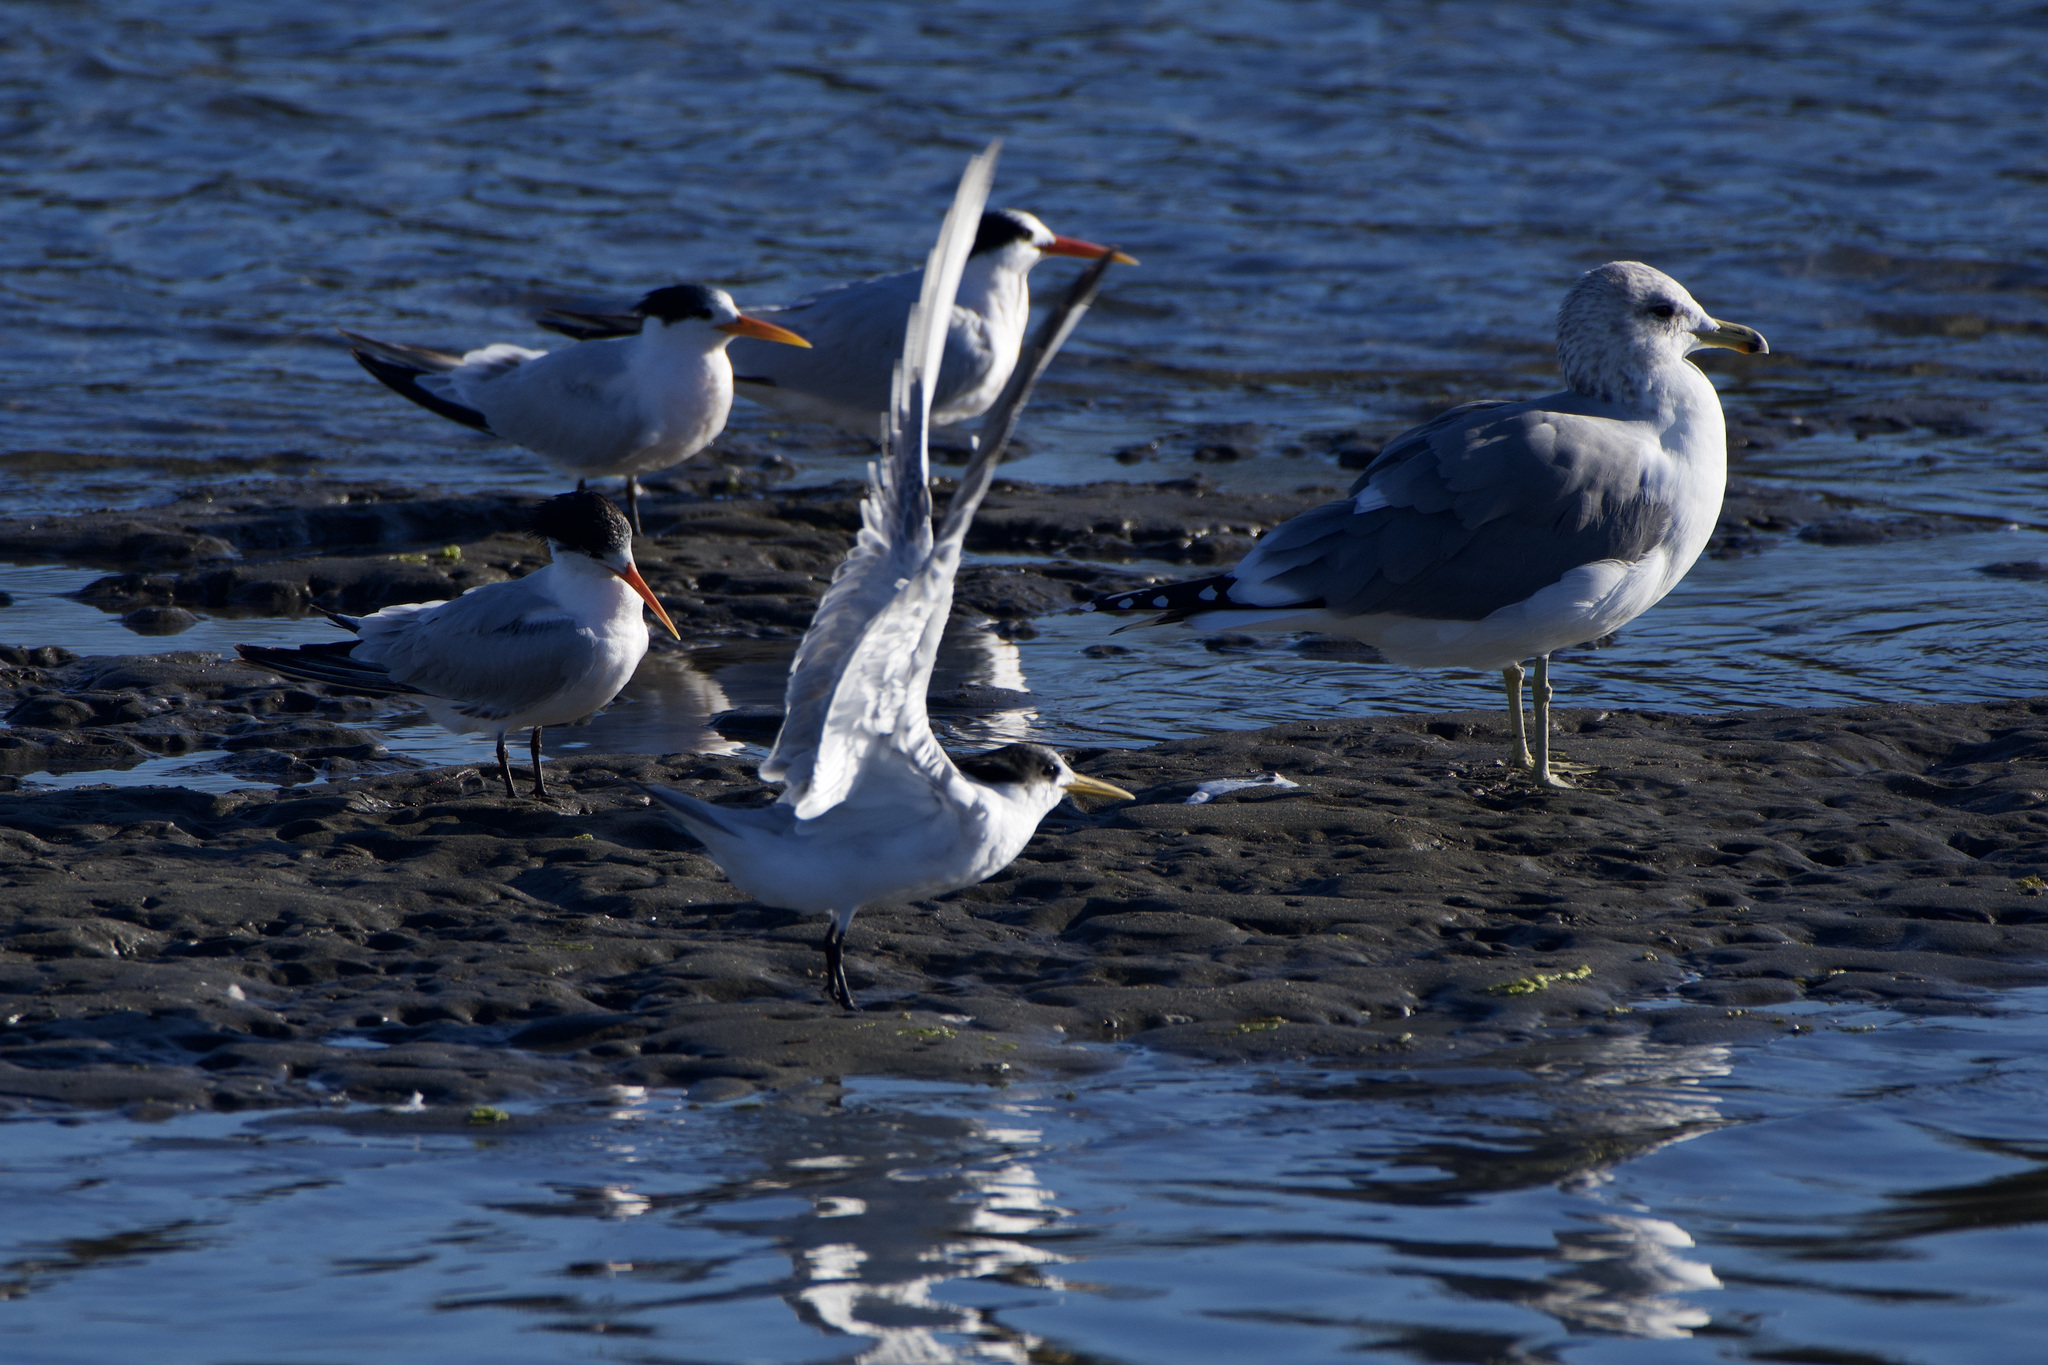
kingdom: Animalia
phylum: Chordata
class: Aves
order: Charadriiformes
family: Laridae
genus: Thalasseus
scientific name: Thalasseus elegans
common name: Elegant tern
